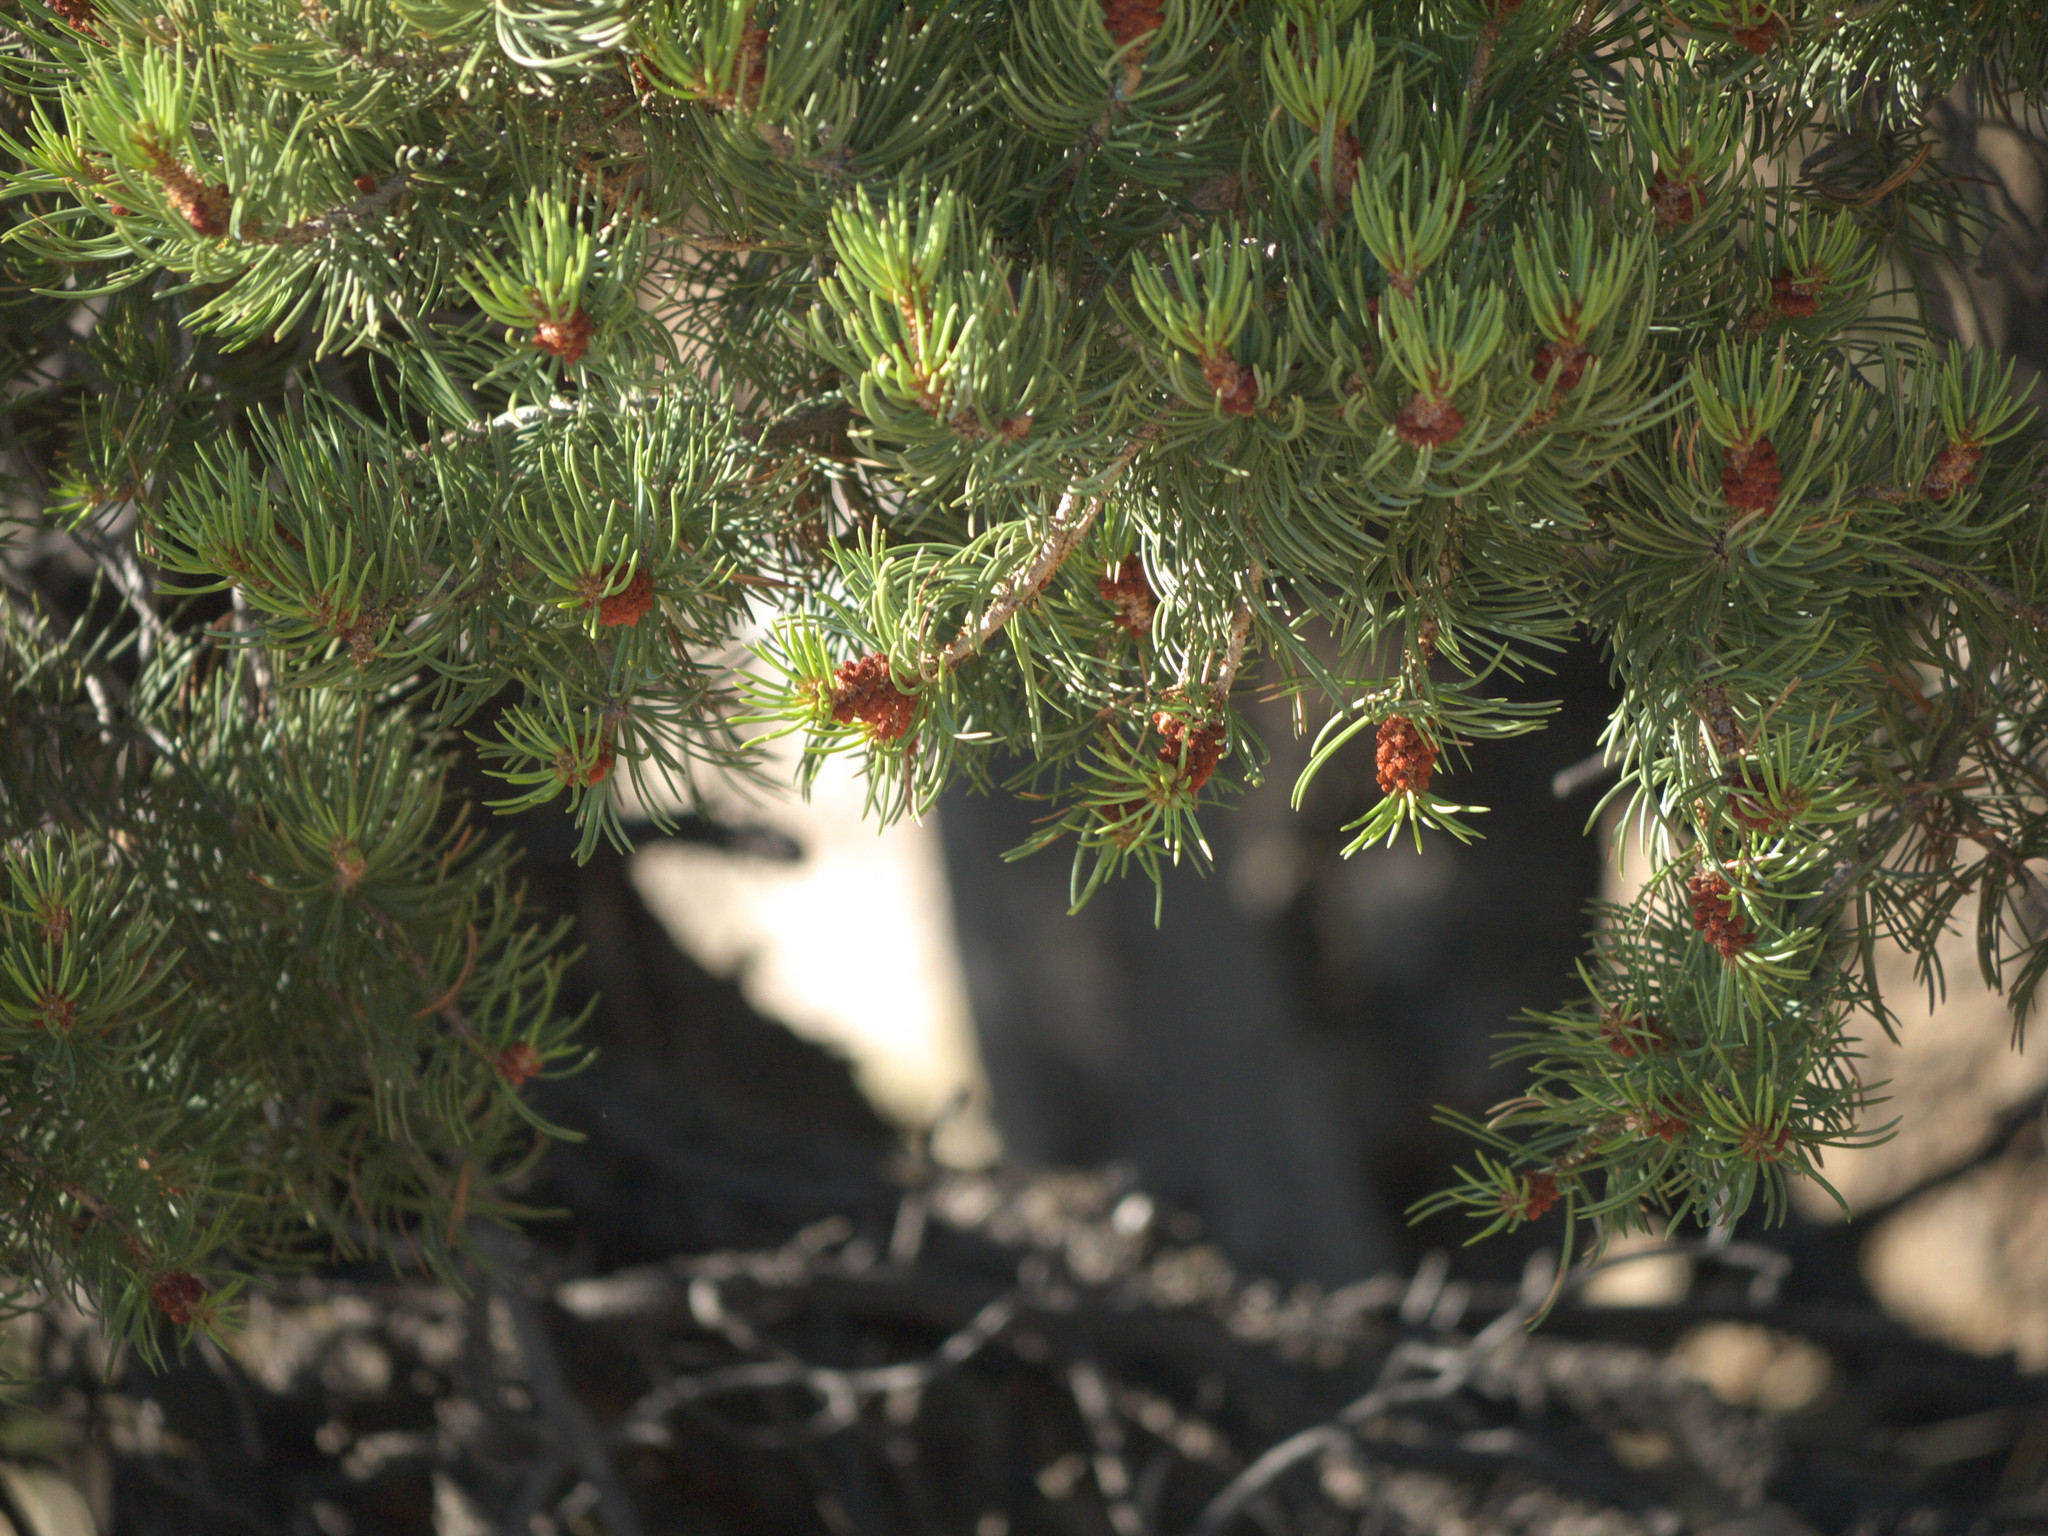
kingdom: Plantae
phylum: Tracheophyta
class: Pinopsida
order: Pinales
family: Pinaceae
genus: Pinus
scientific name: Pinus edulis
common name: Colorado pinyon
